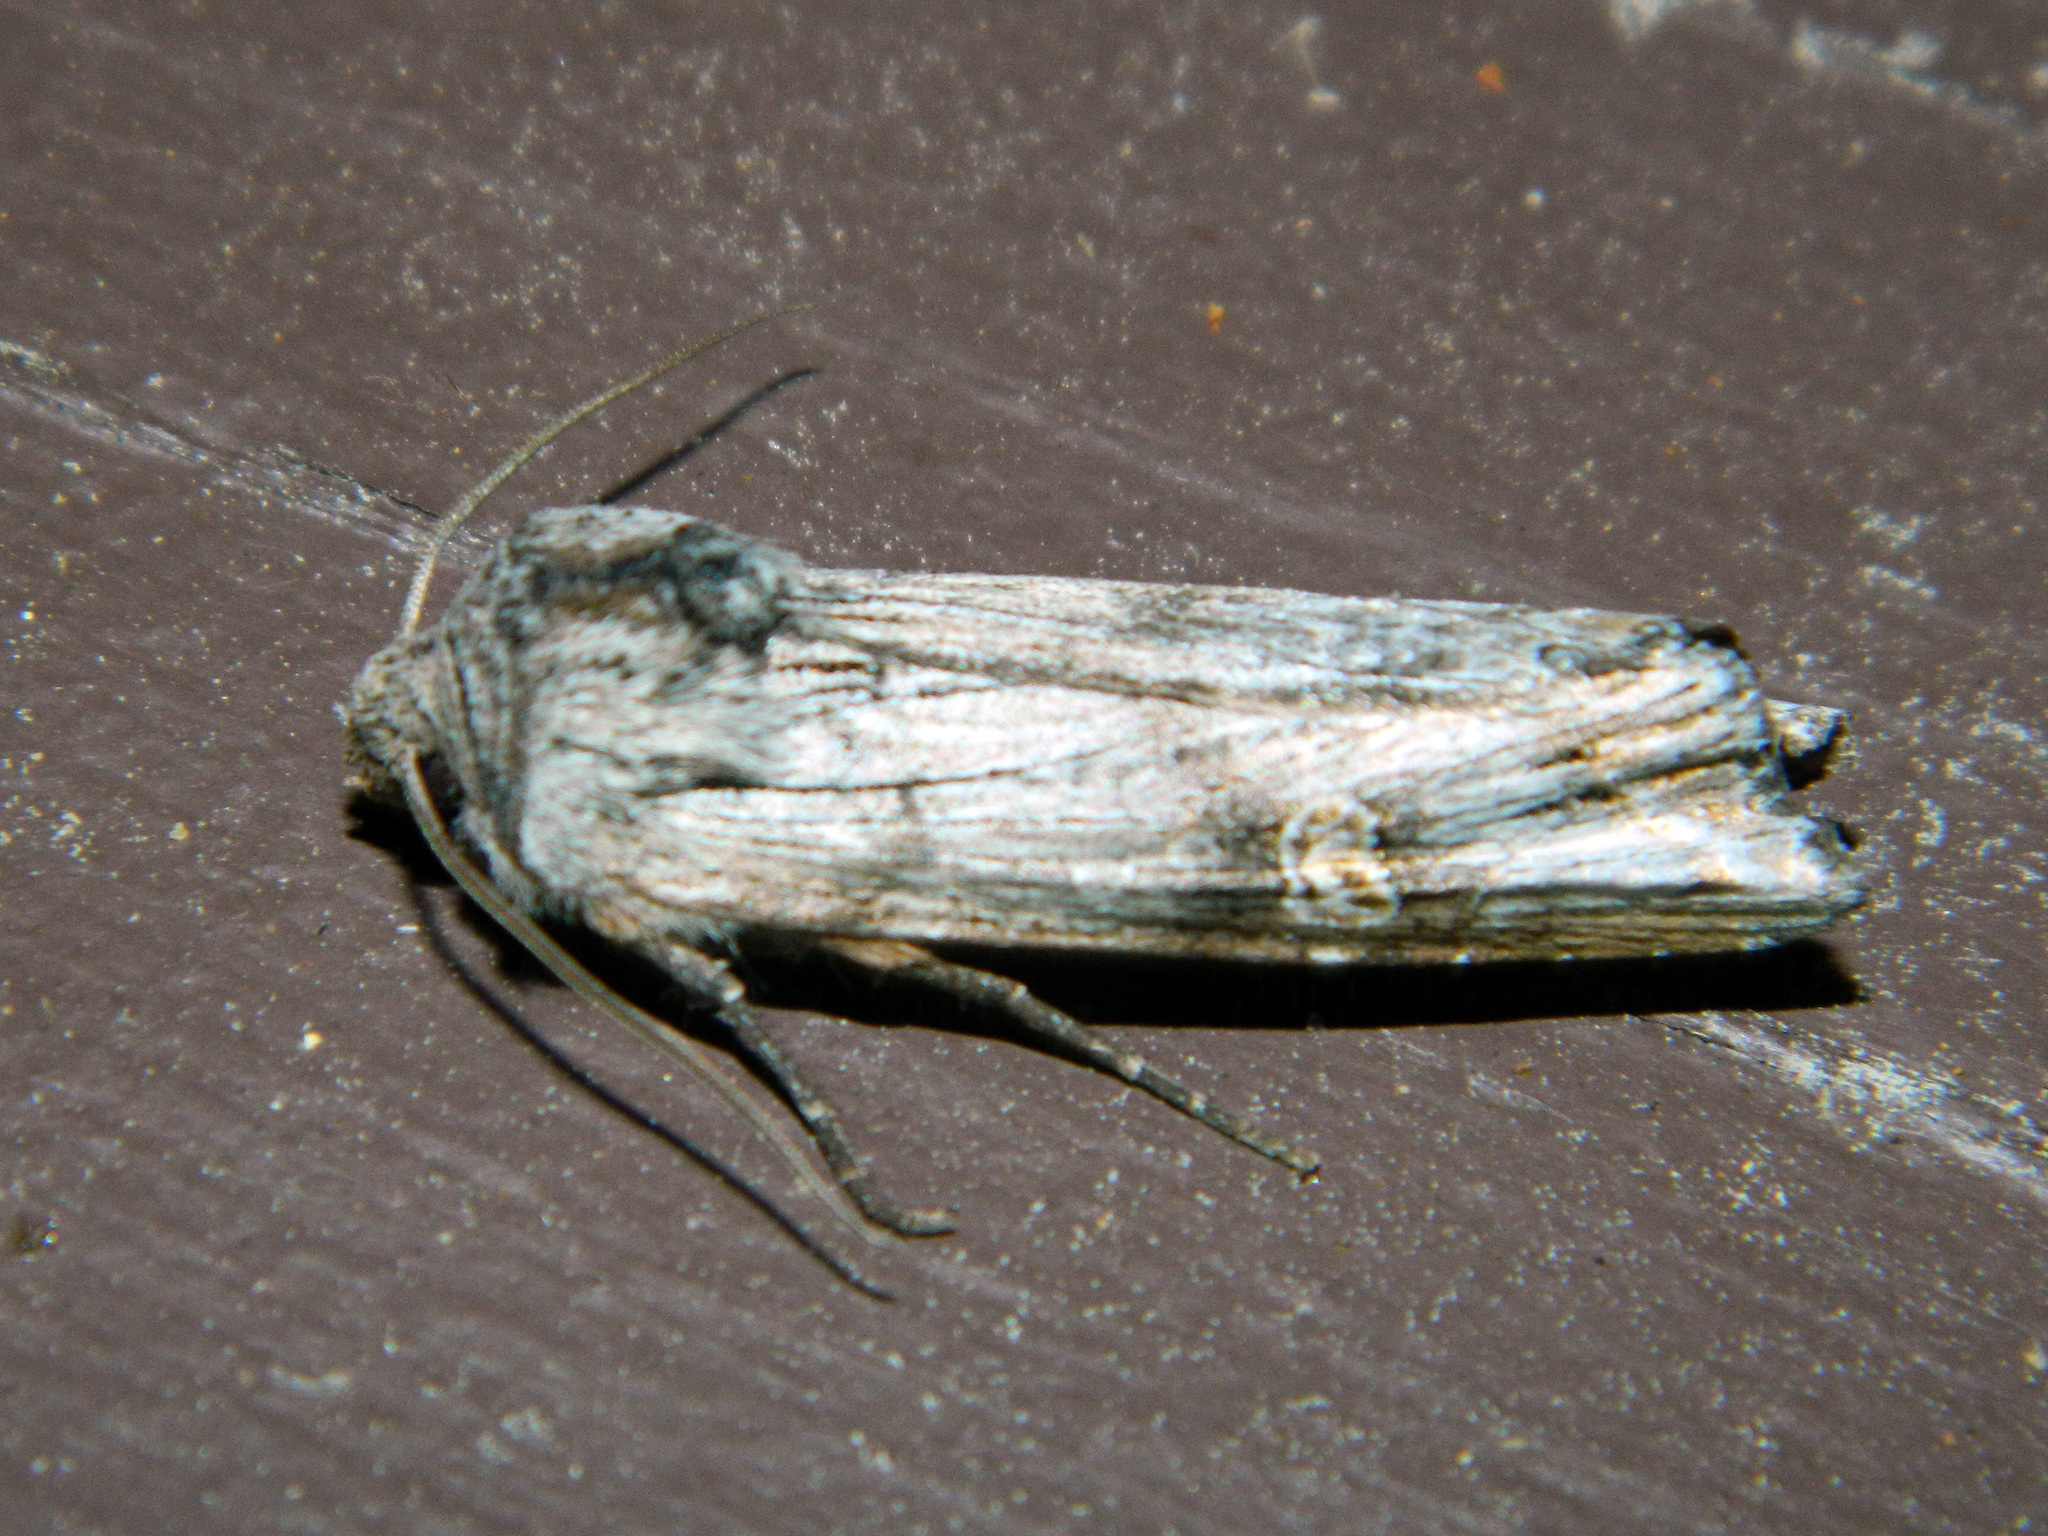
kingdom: Animalia
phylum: Arthropoda
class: Insecta
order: Lepidoptera
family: Noctuidae
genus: Xylena
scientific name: Xylena germana
